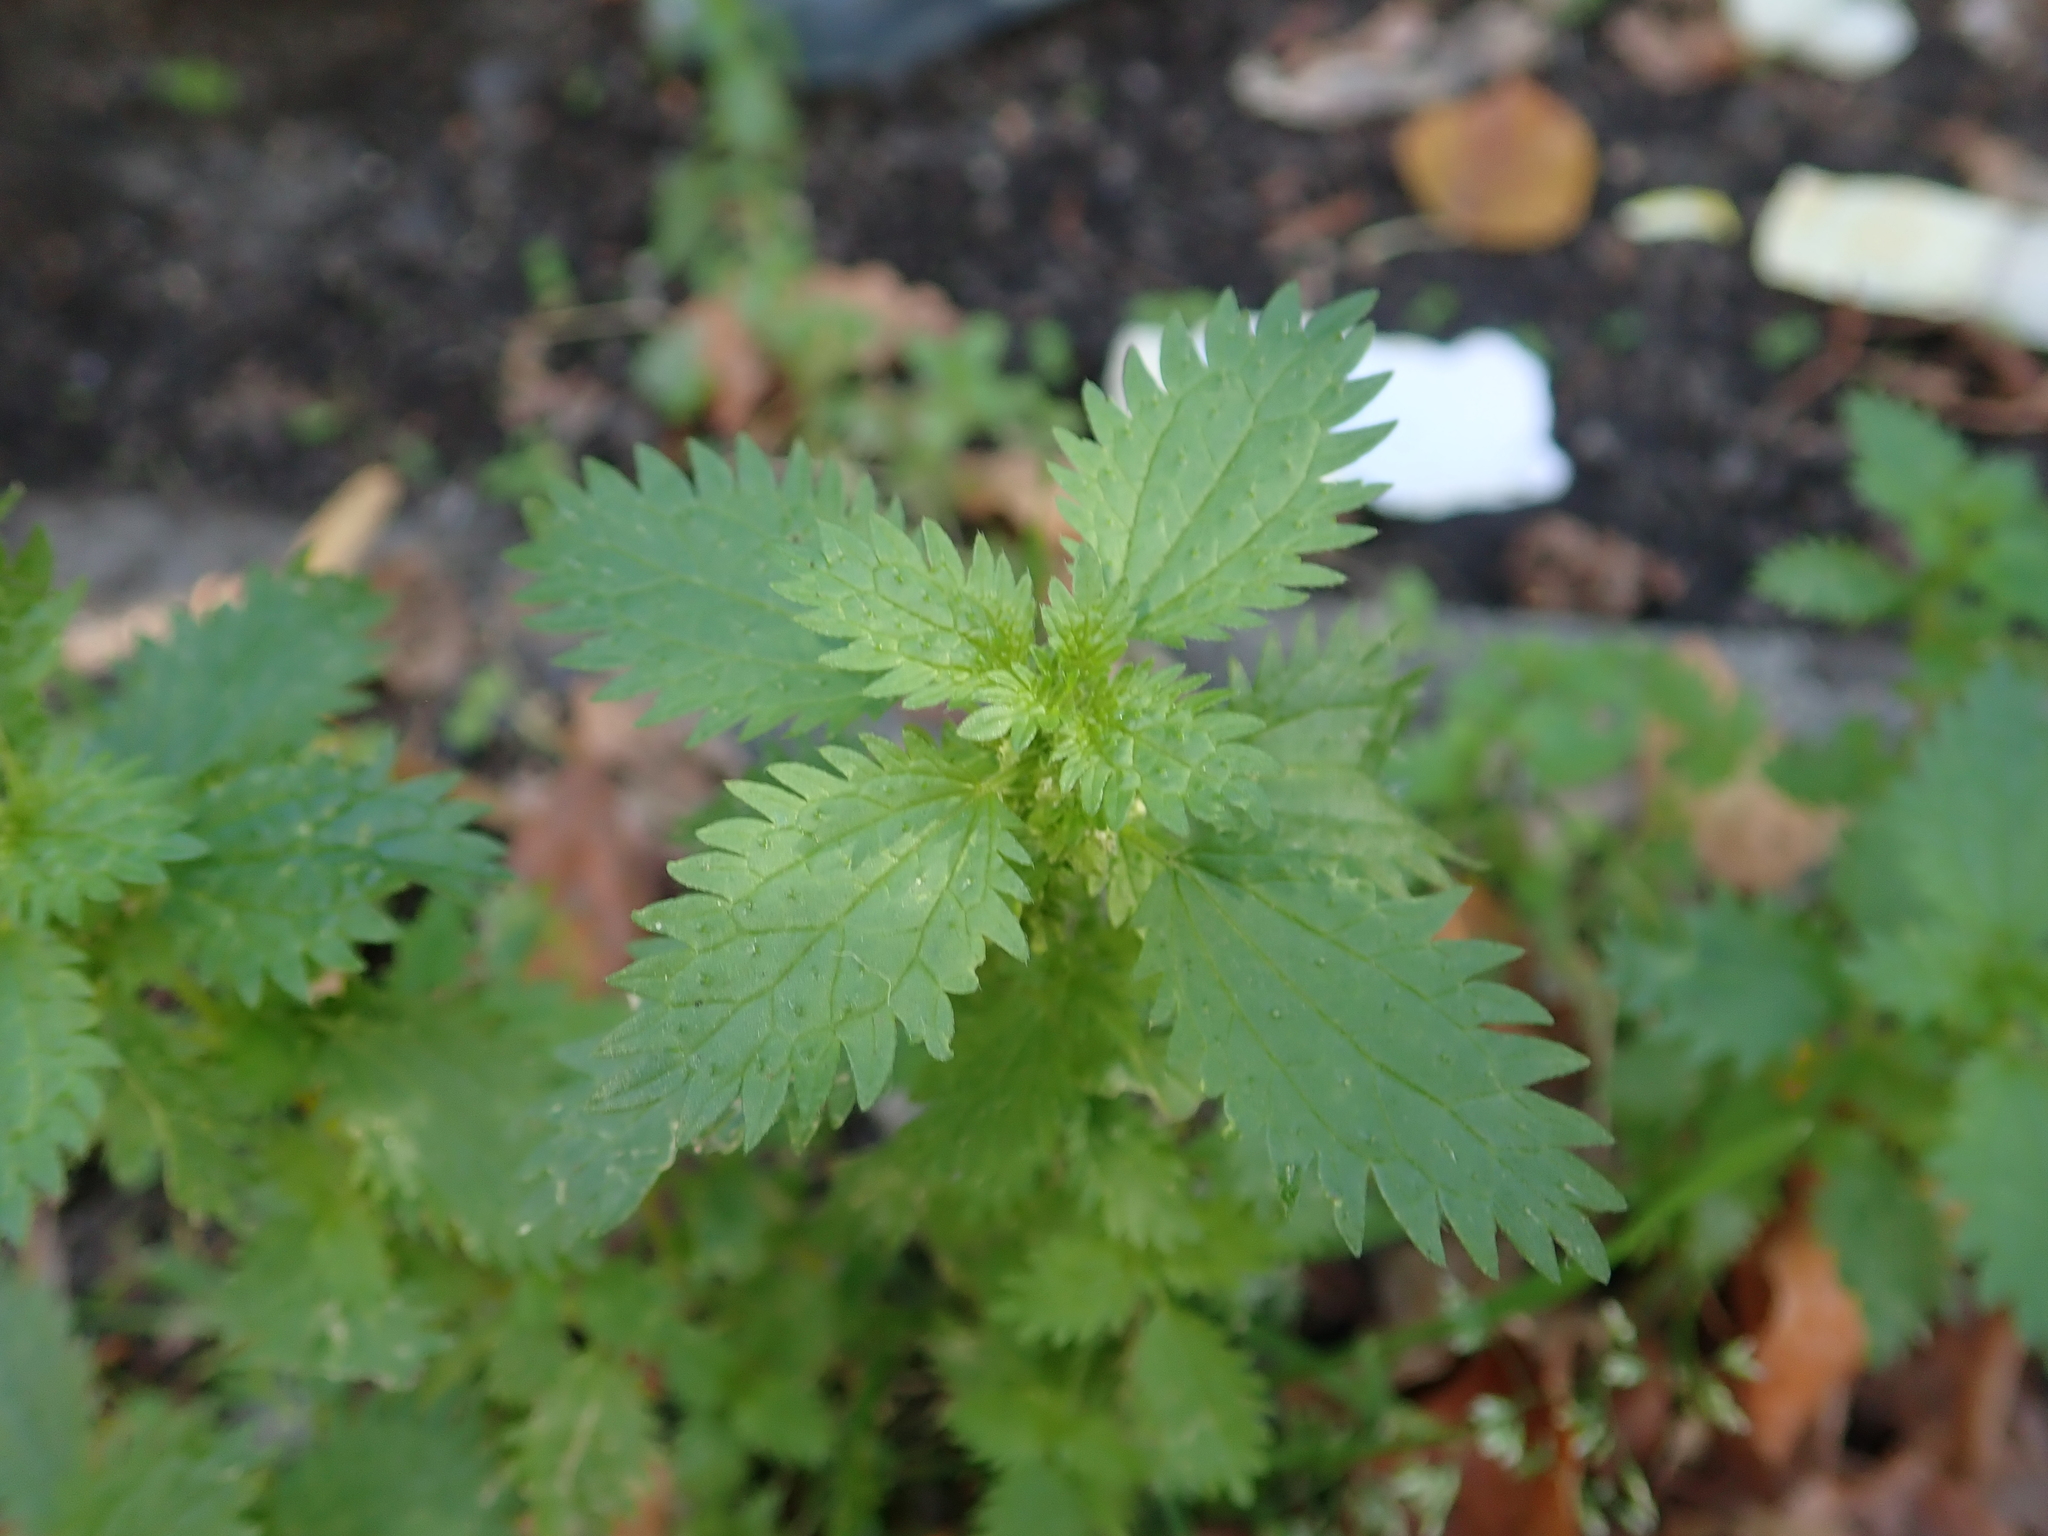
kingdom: Plantae
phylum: Tracheophyta
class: Magnoliopsida
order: Rosales
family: Urticaceae
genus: Urtica
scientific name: Urtica urens
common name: Dwarf nettle
